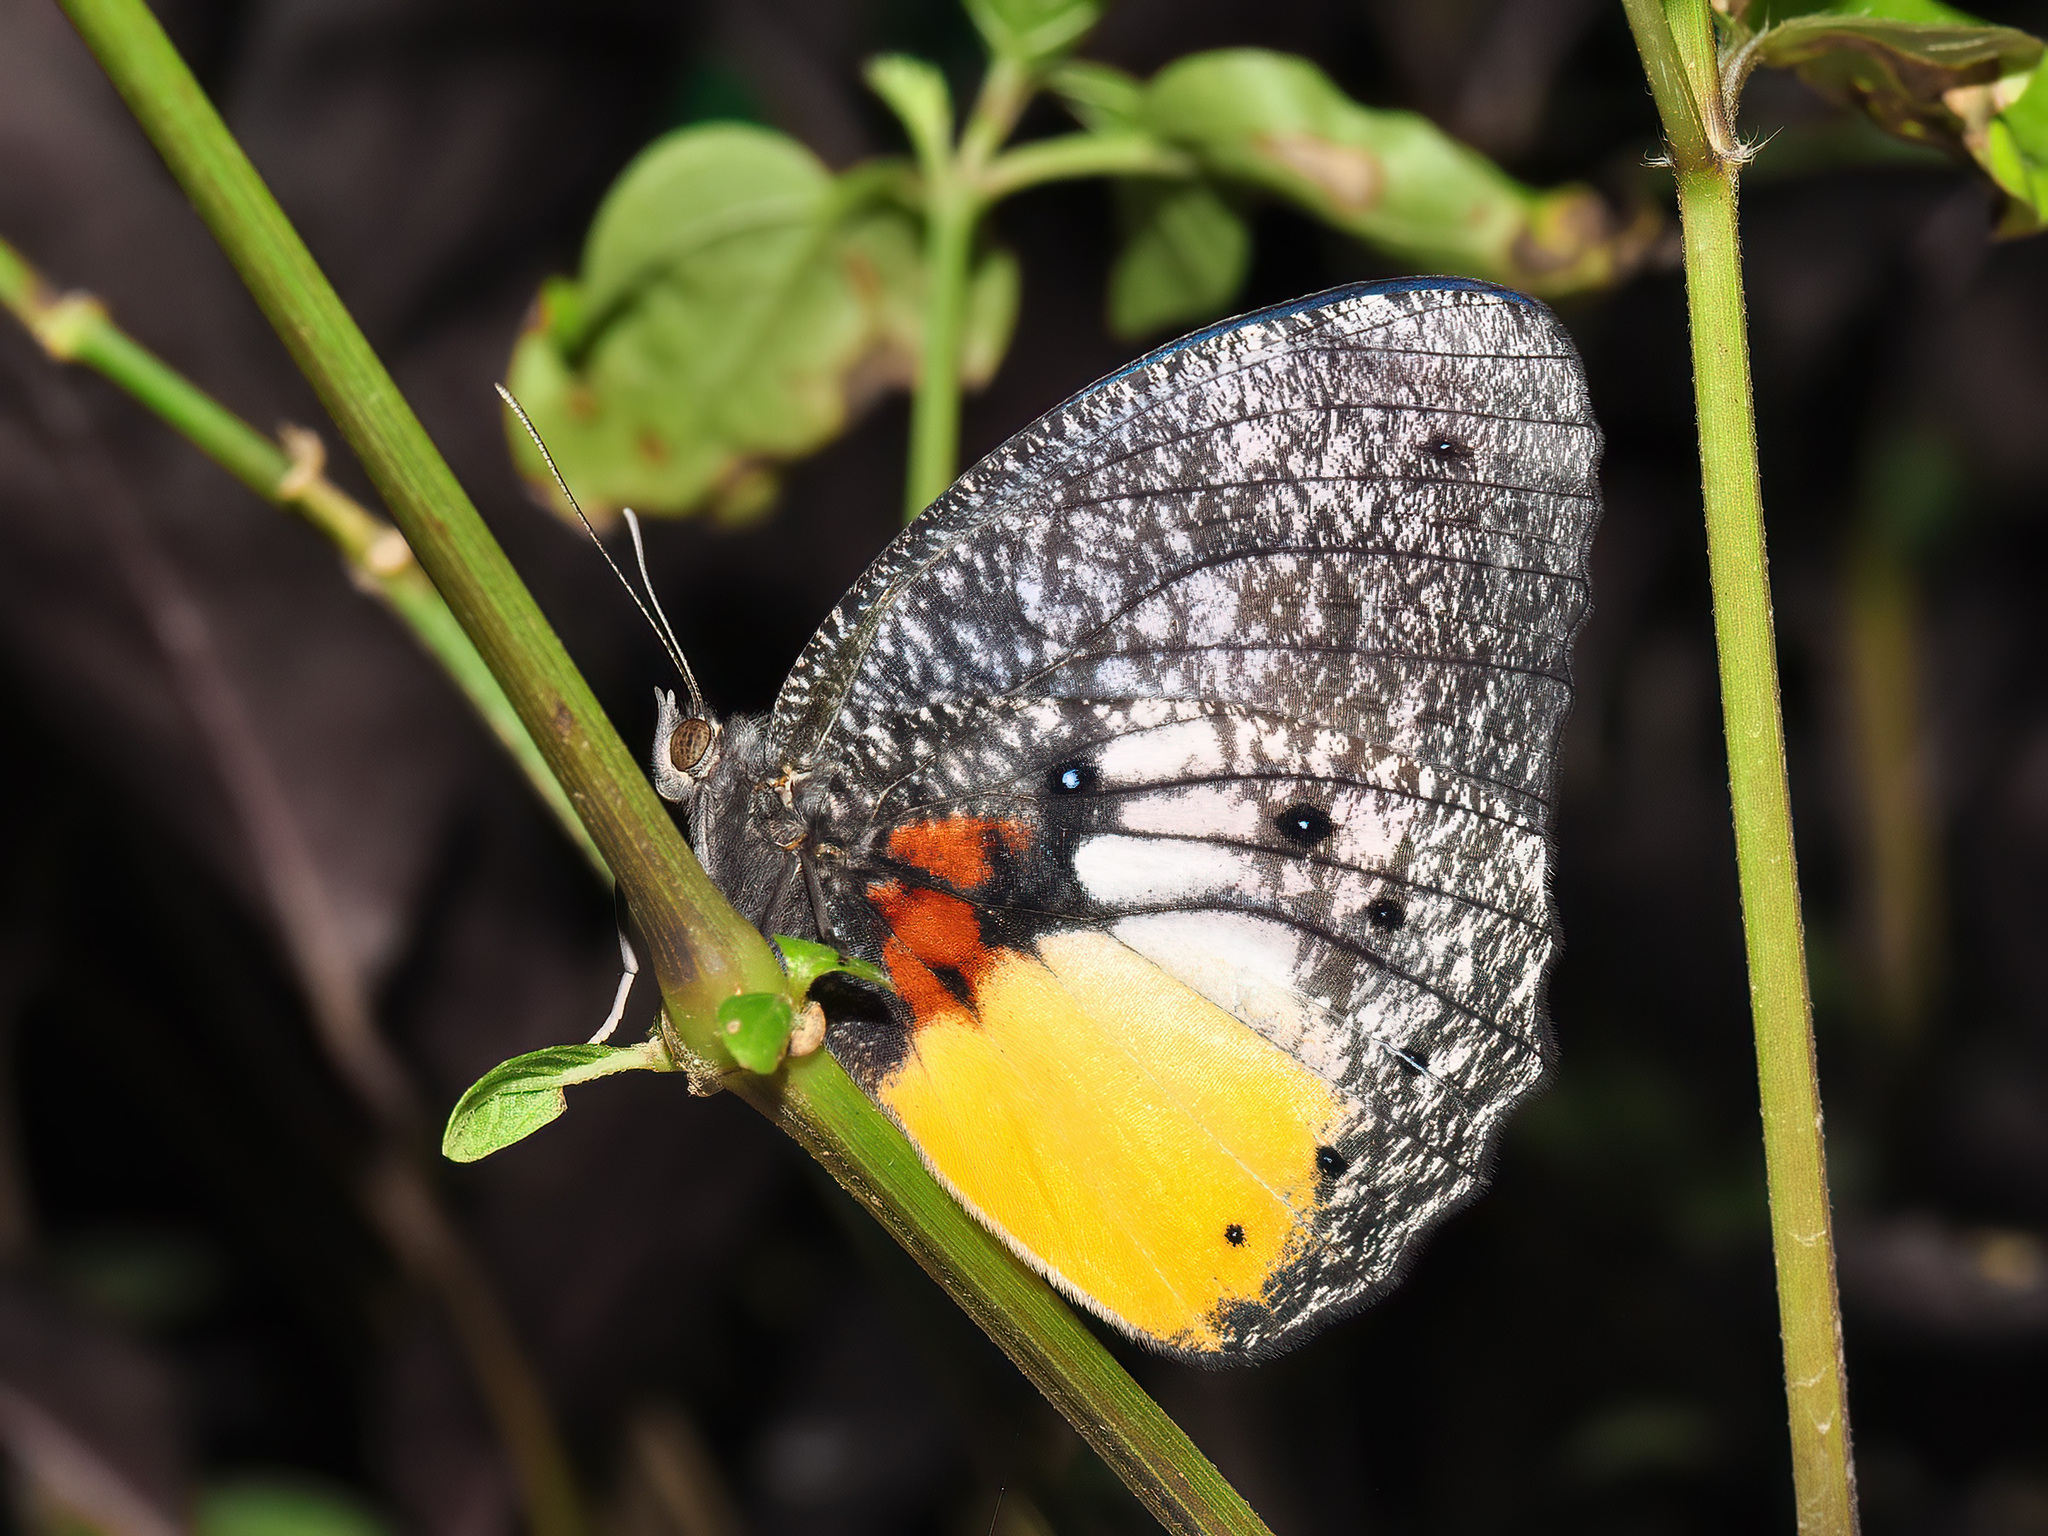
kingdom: Animalia
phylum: Arthropoda
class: Insecta
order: Lepidoptera
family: Nymphalidae
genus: Elymnias
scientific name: Elymnias esaca
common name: Green palmfly
